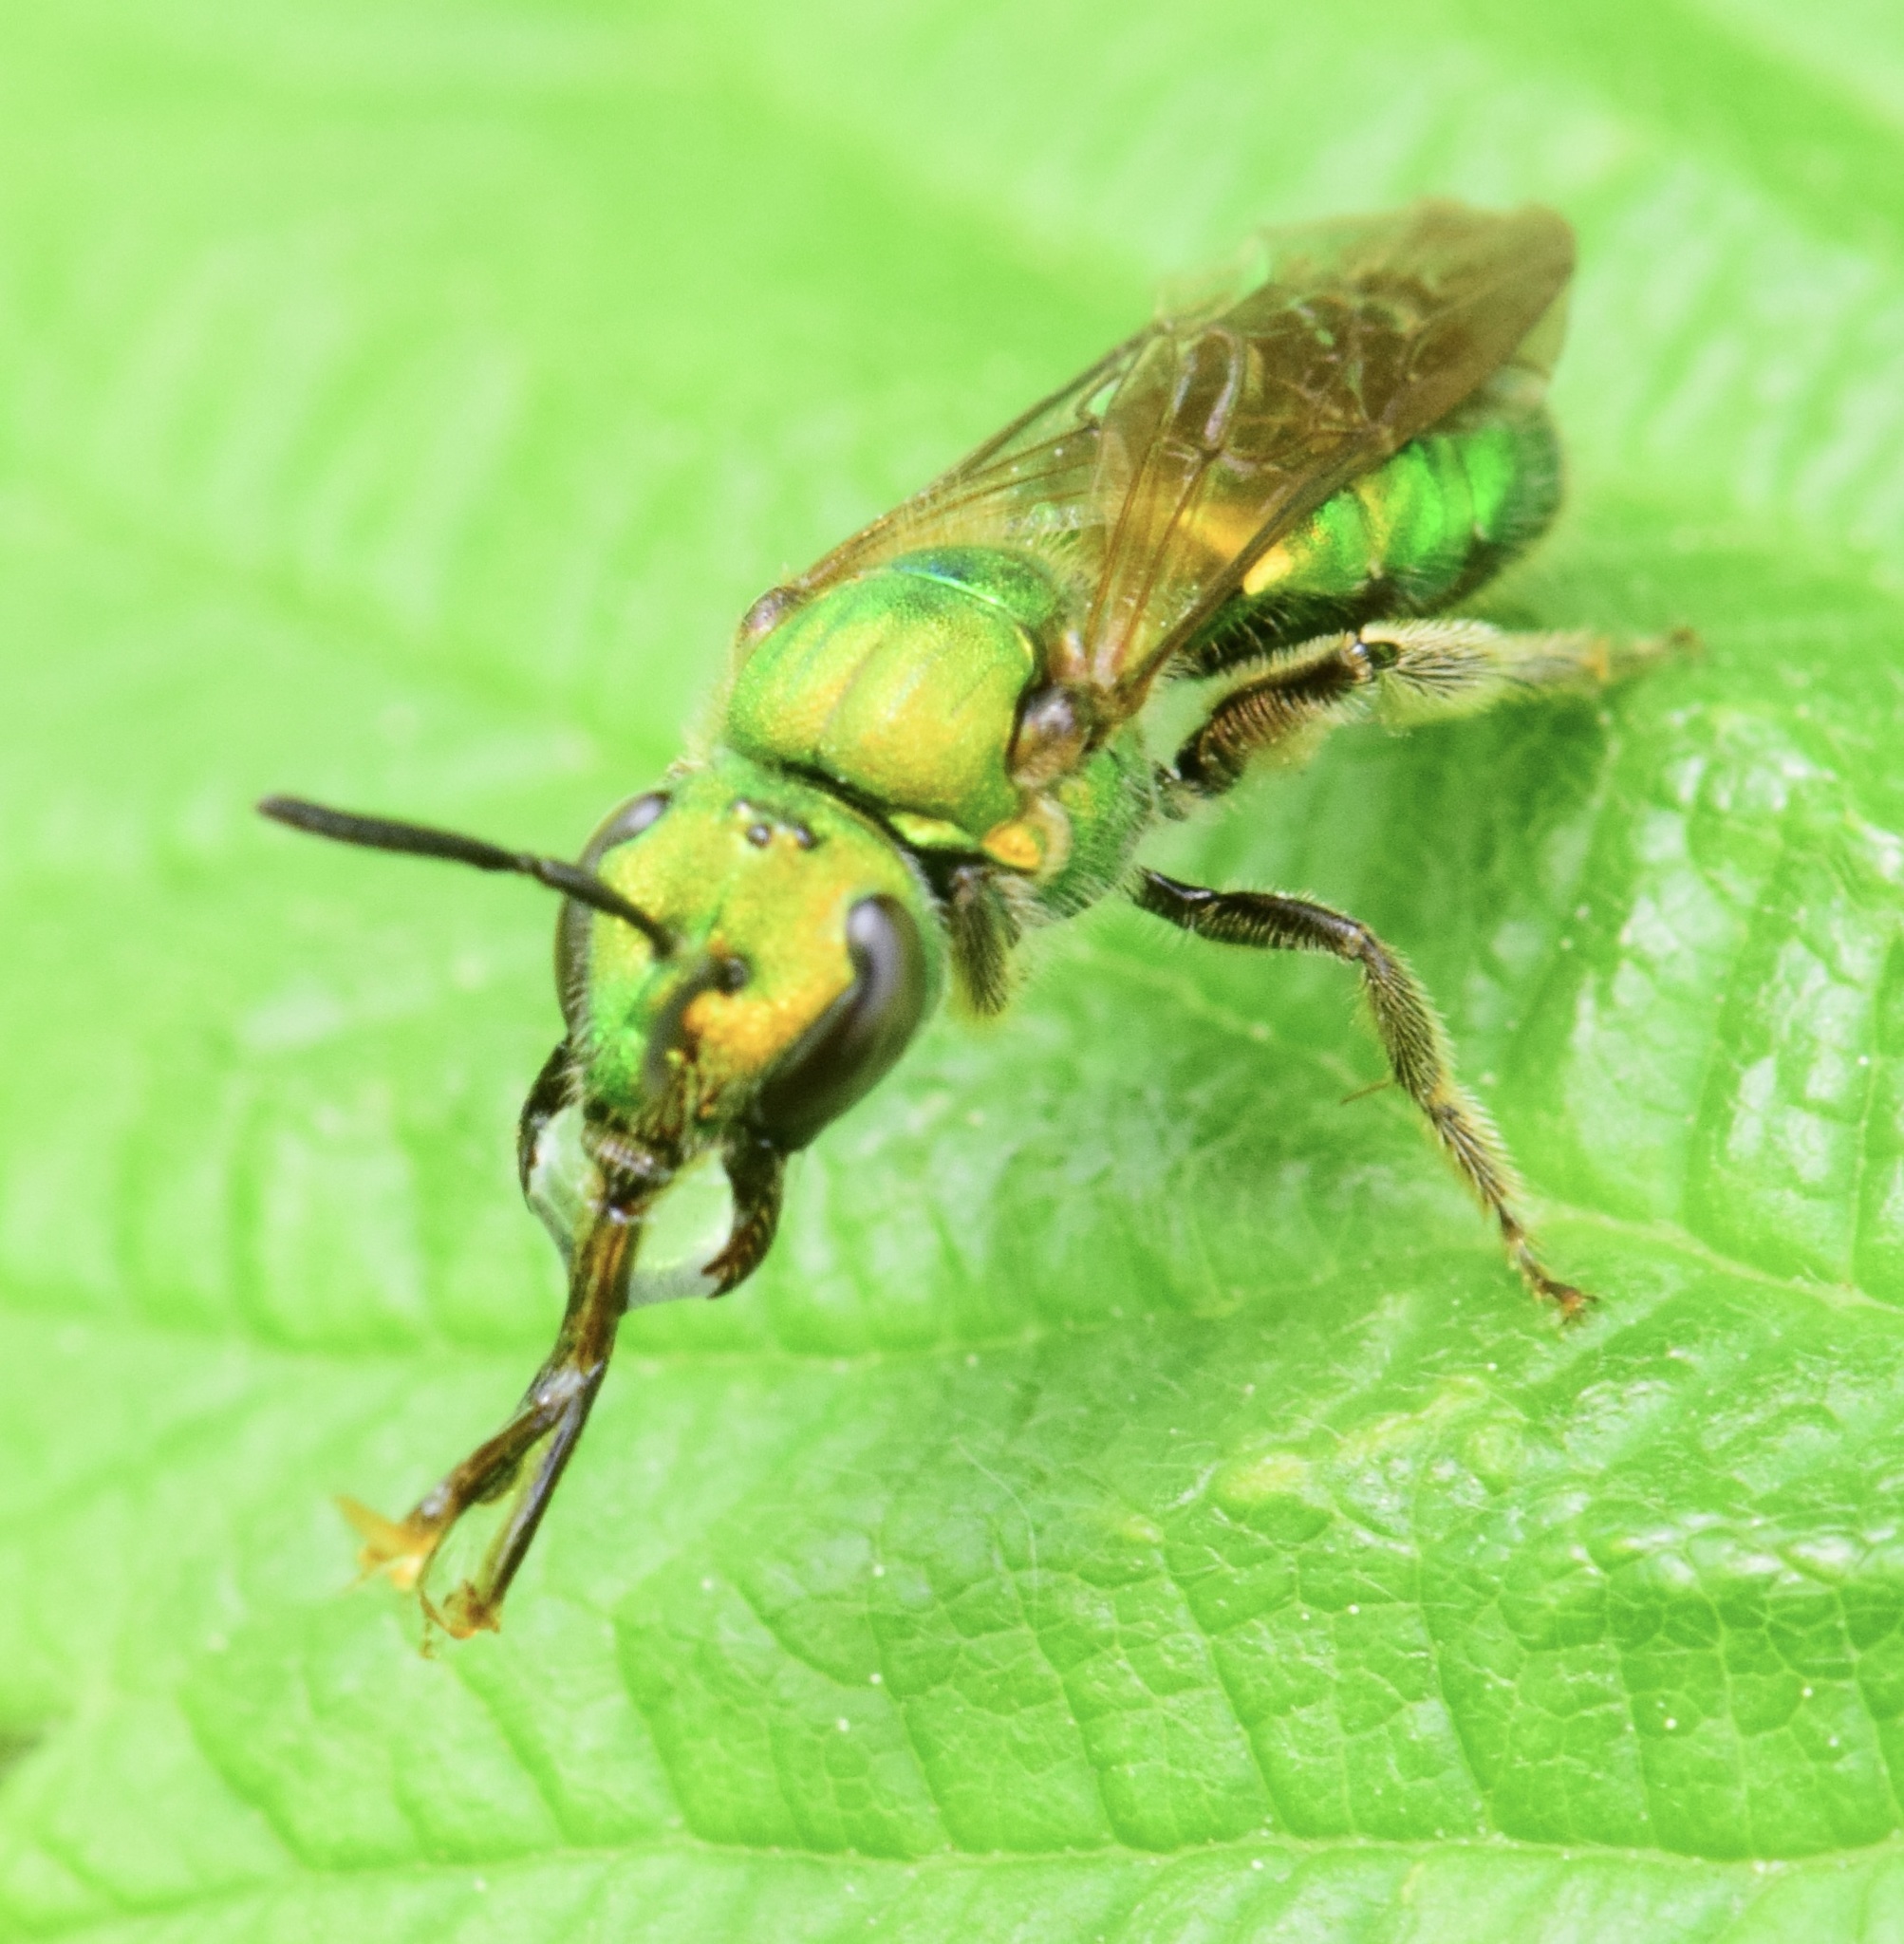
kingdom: Animalia
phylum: Arthropoda
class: Insecta
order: Hymenoptera
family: Halictidae
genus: Augochlora
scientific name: Augochlora pura
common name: Pure green sweat bee
